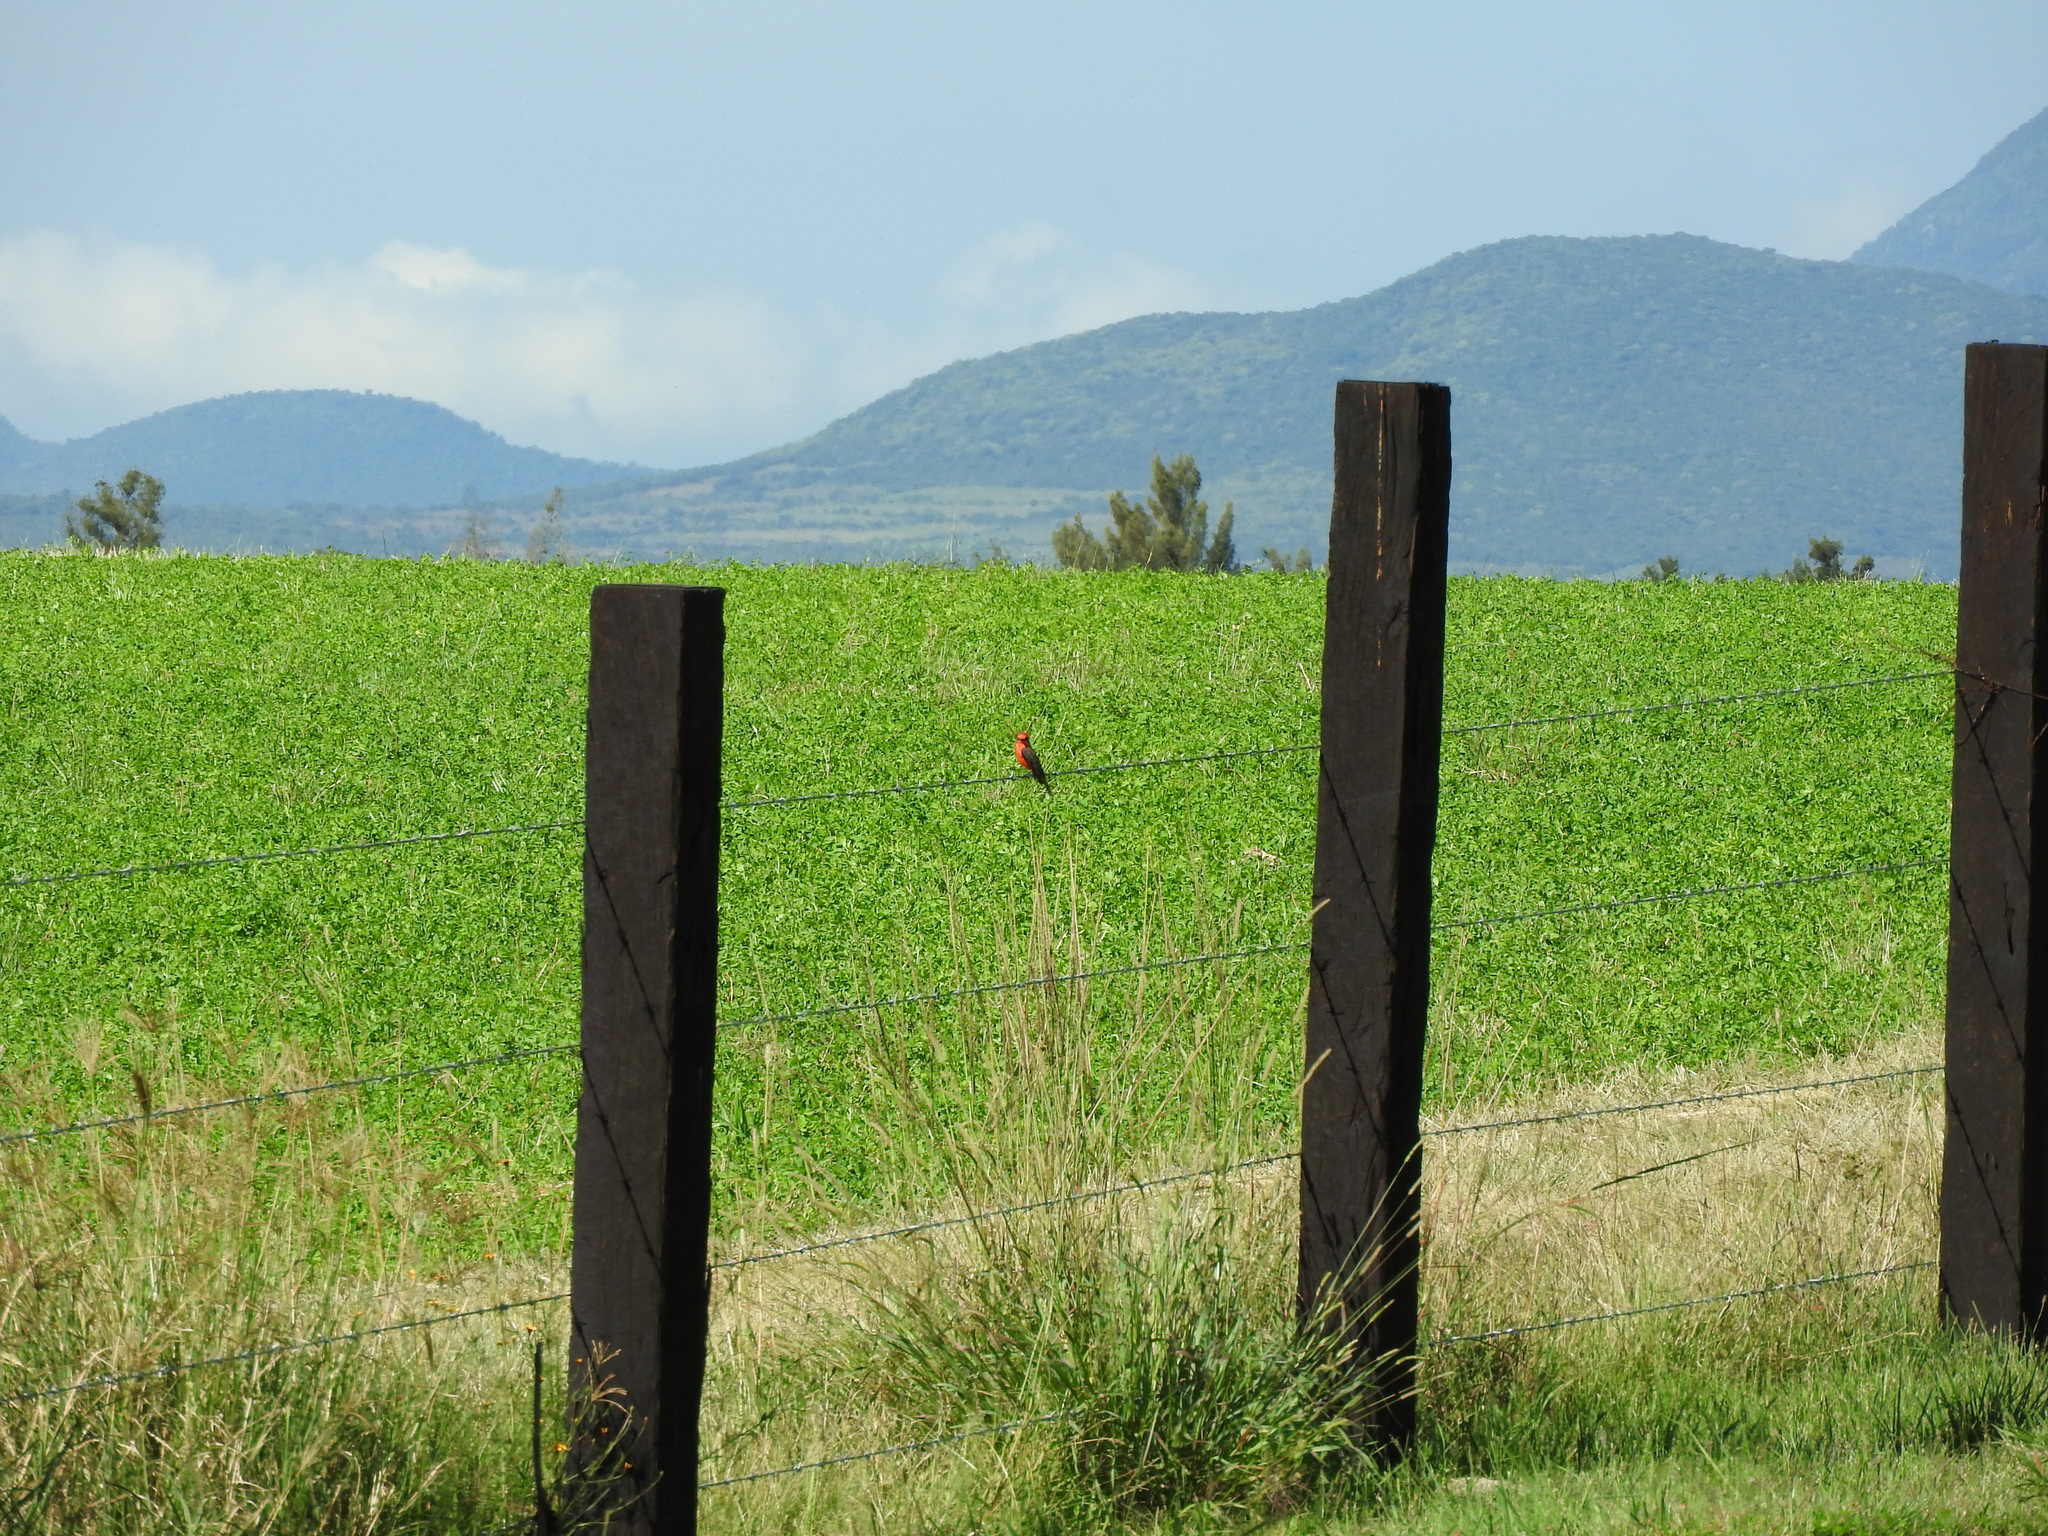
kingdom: Animalia
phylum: Chordata
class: Aves
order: Passeriformes
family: Tyrannidae
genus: Pyrocephalus
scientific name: Pyrocephalus rubinus
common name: Vermilion flycatcher
